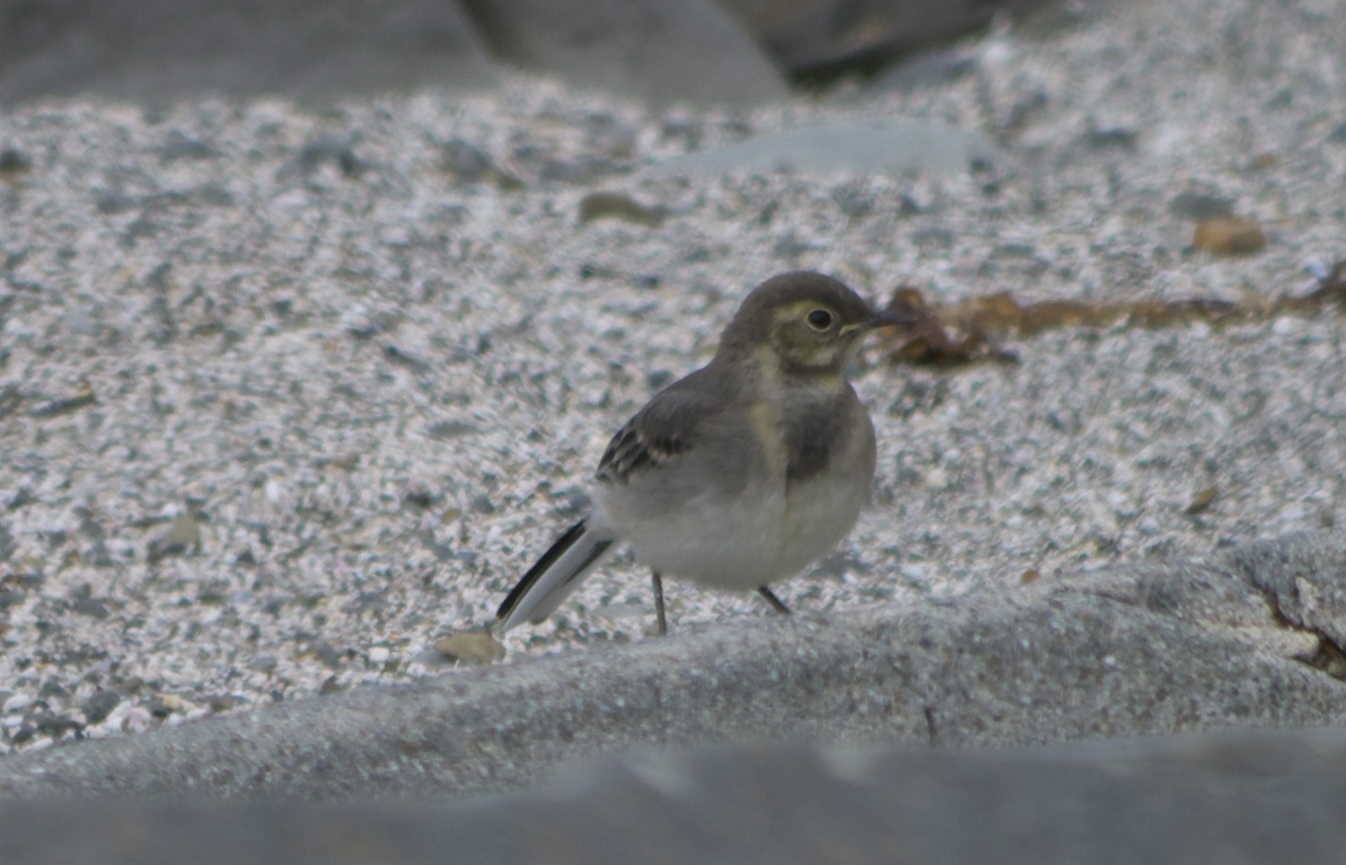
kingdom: Animalia
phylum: Chordata
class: Aves
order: Passeriformes
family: Motacillidae
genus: Motacilla
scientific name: Motacilla alba
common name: White wagtail
